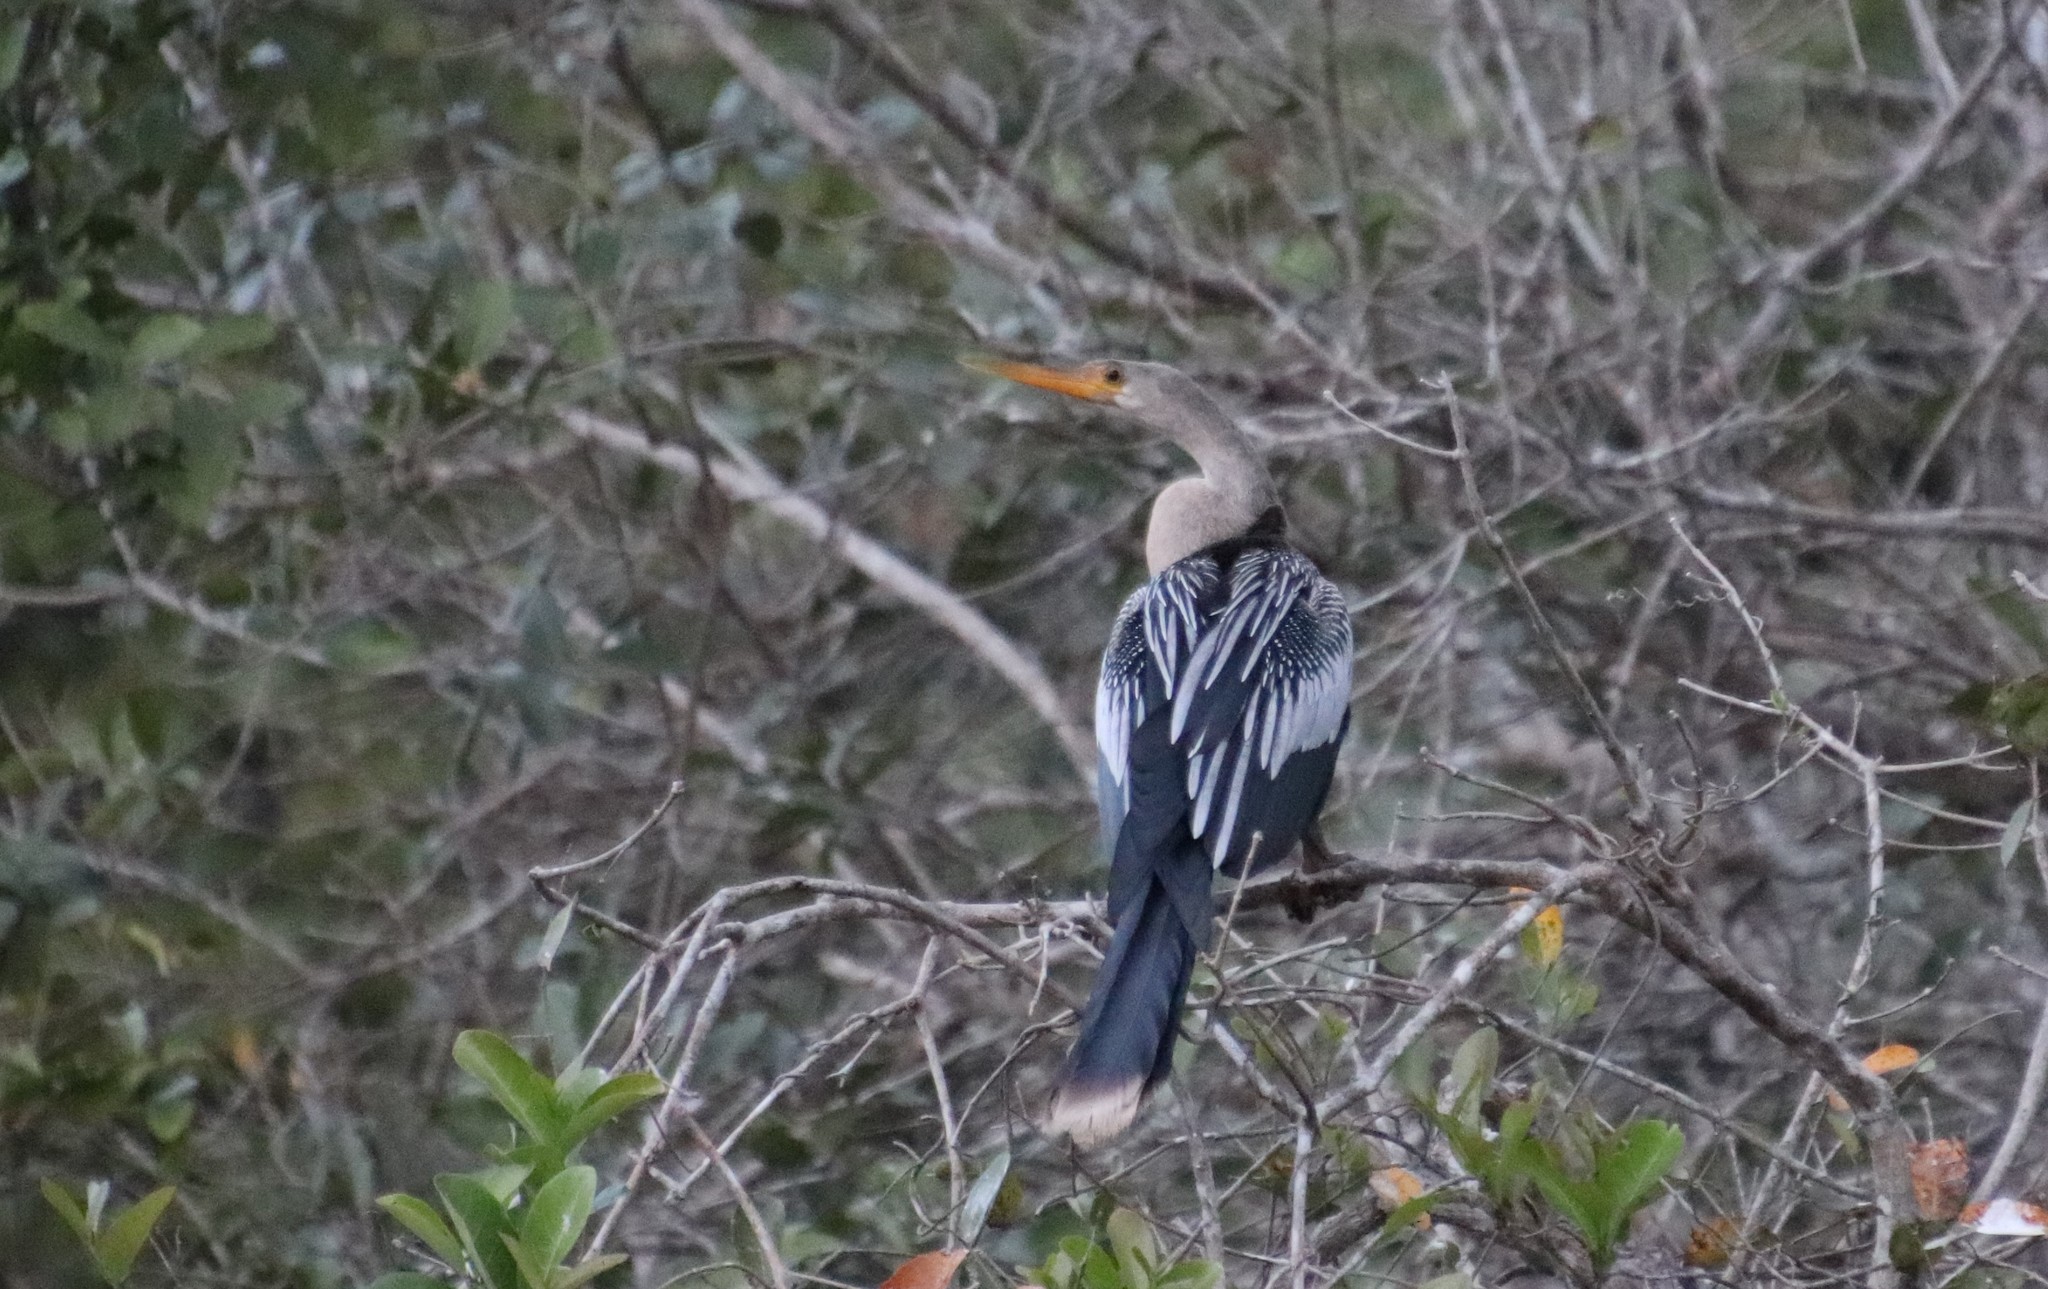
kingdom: Animalia
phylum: Chordata
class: Aves
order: Suliformes
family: Anhingidae
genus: Anhinga
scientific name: Anhinga anhinga
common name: Anhinga
